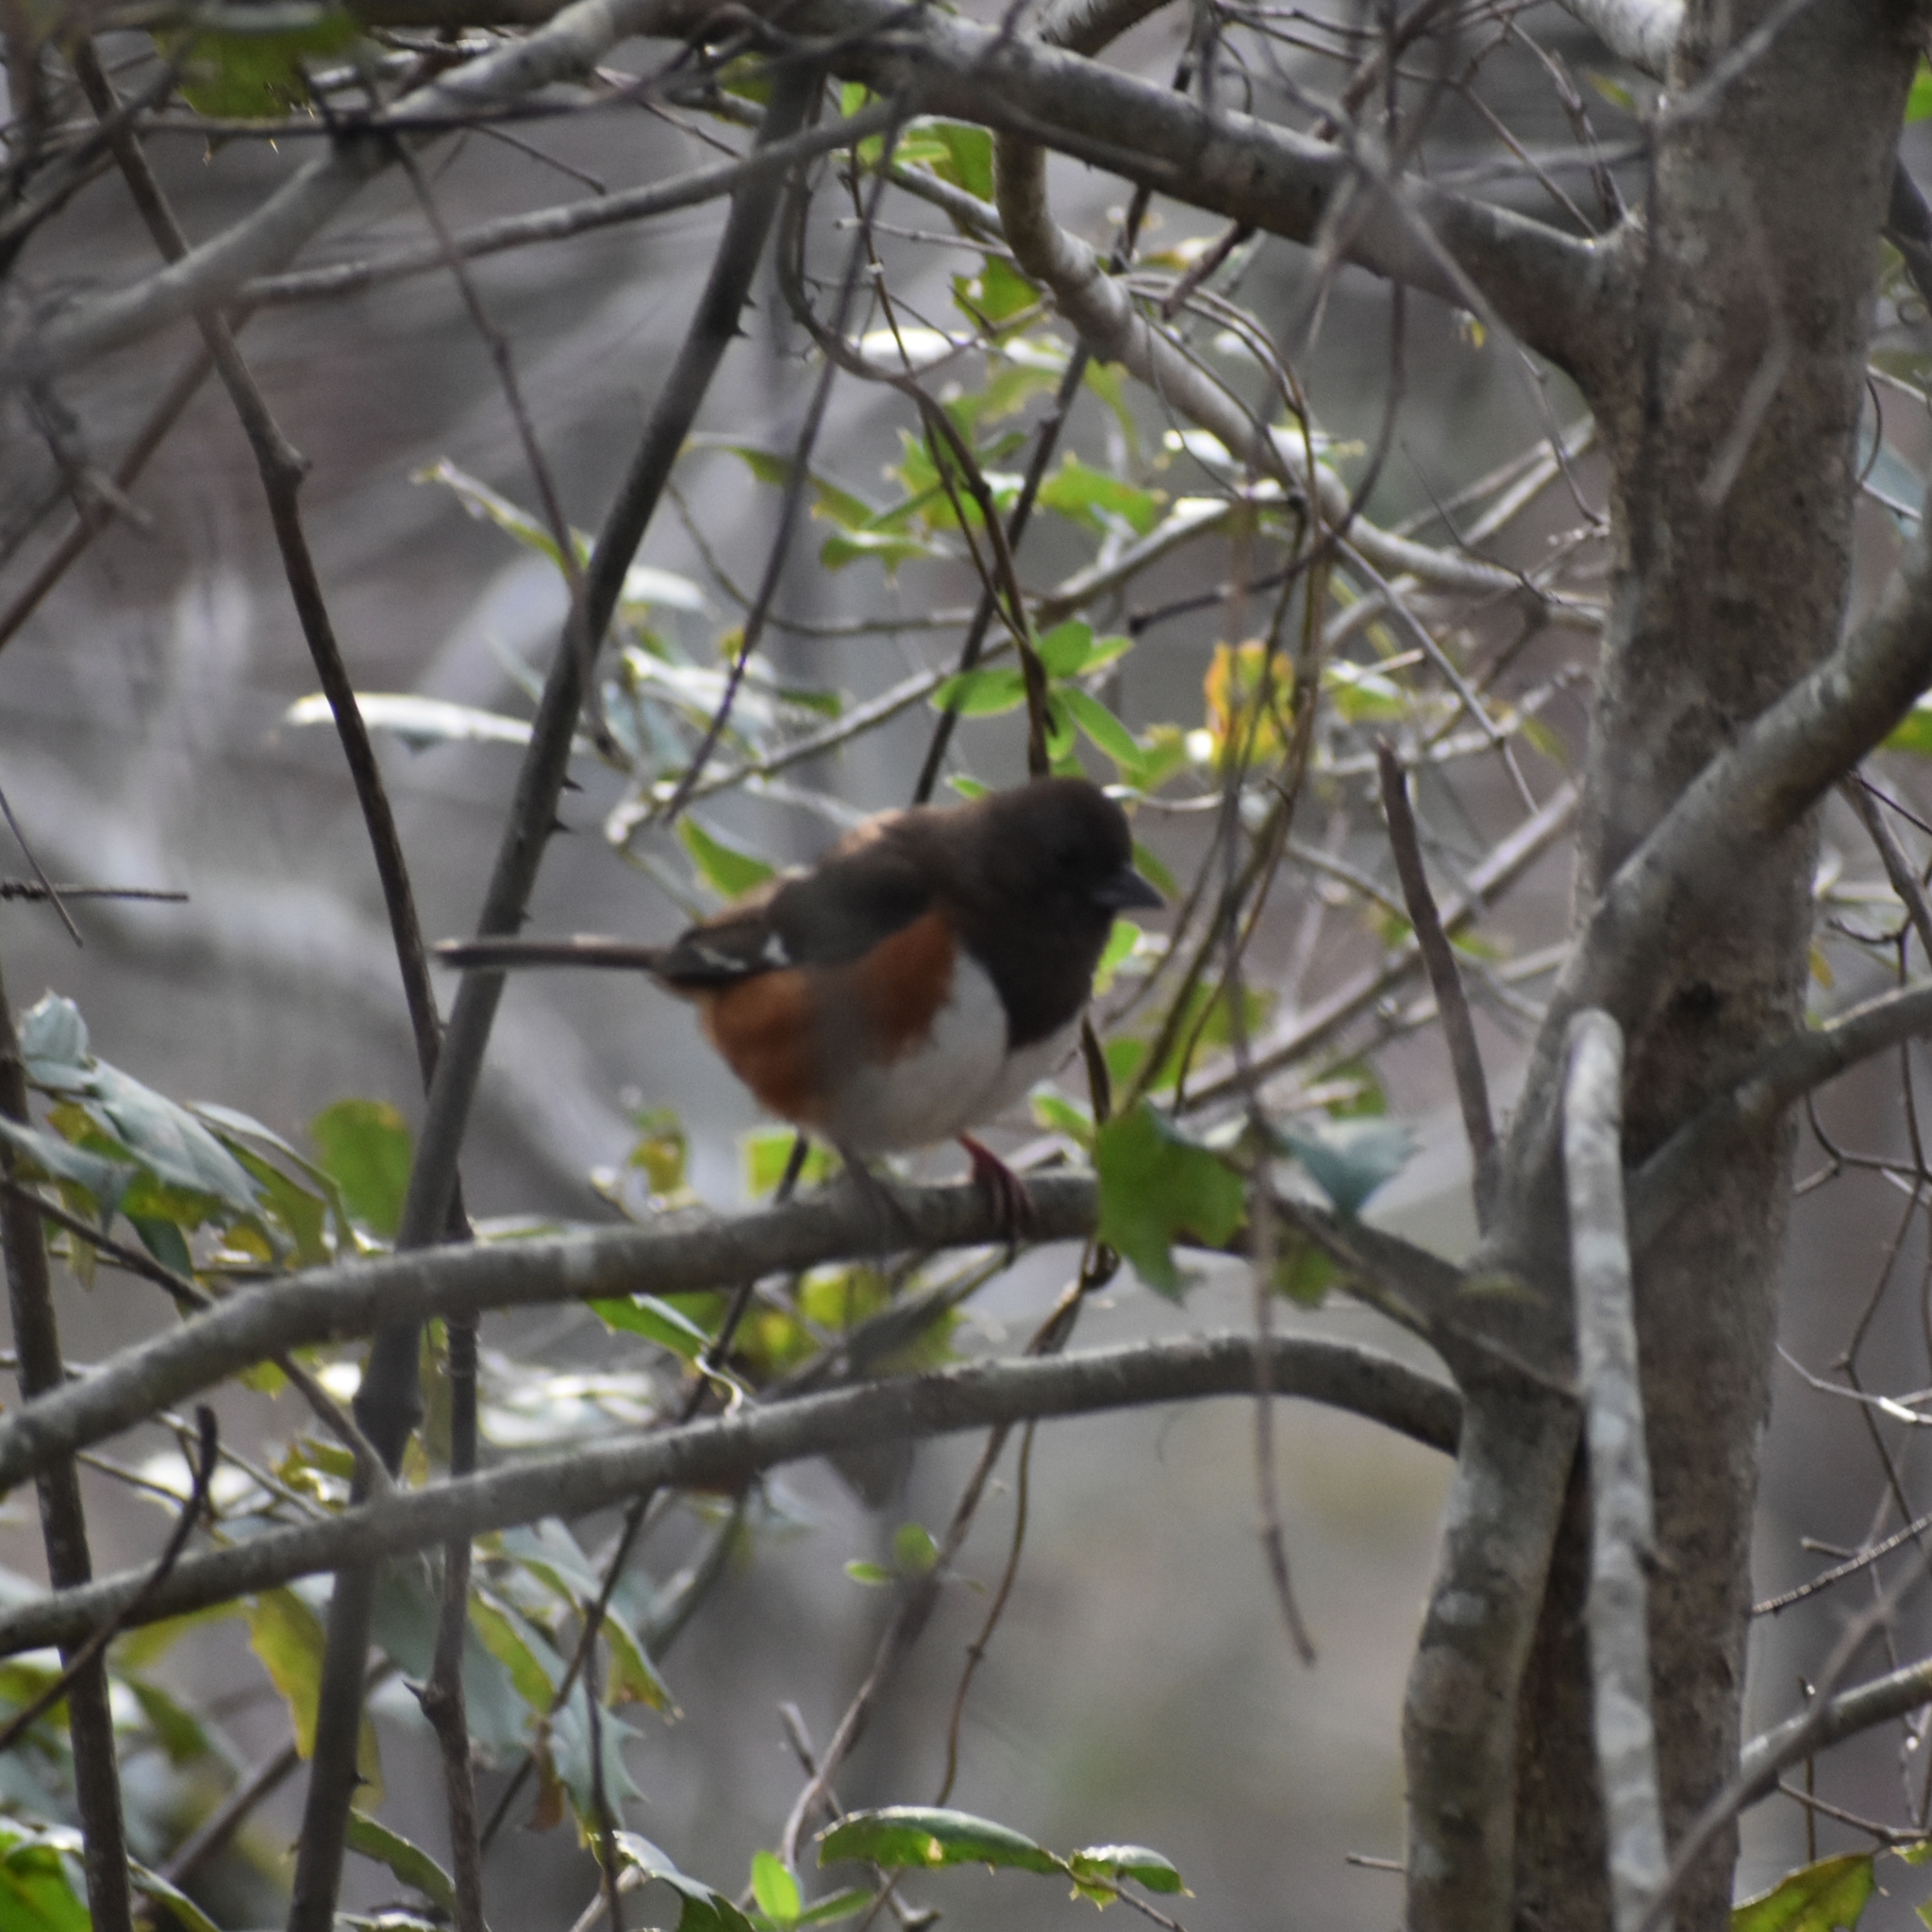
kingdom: Animalia
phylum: Chordata
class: Aves
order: Passeriformes
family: Passerellidae
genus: Pipilo
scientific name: Pipilo erythrophthalmus
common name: Eastern towhee
